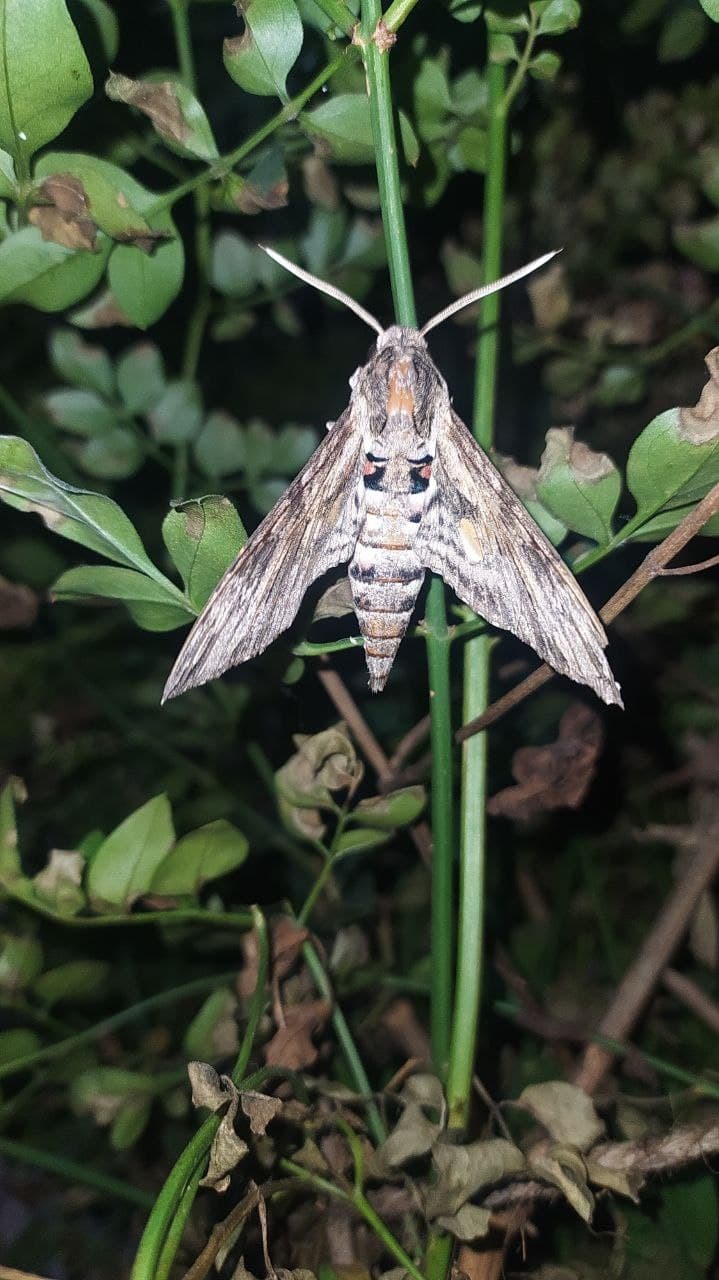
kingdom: Animalia
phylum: Arthropoda
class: Insecta
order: Lepidoptera
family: Sphingidae
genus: Agrius
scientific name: Agrius convolvuli
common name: Convolvulus hawkmoth
